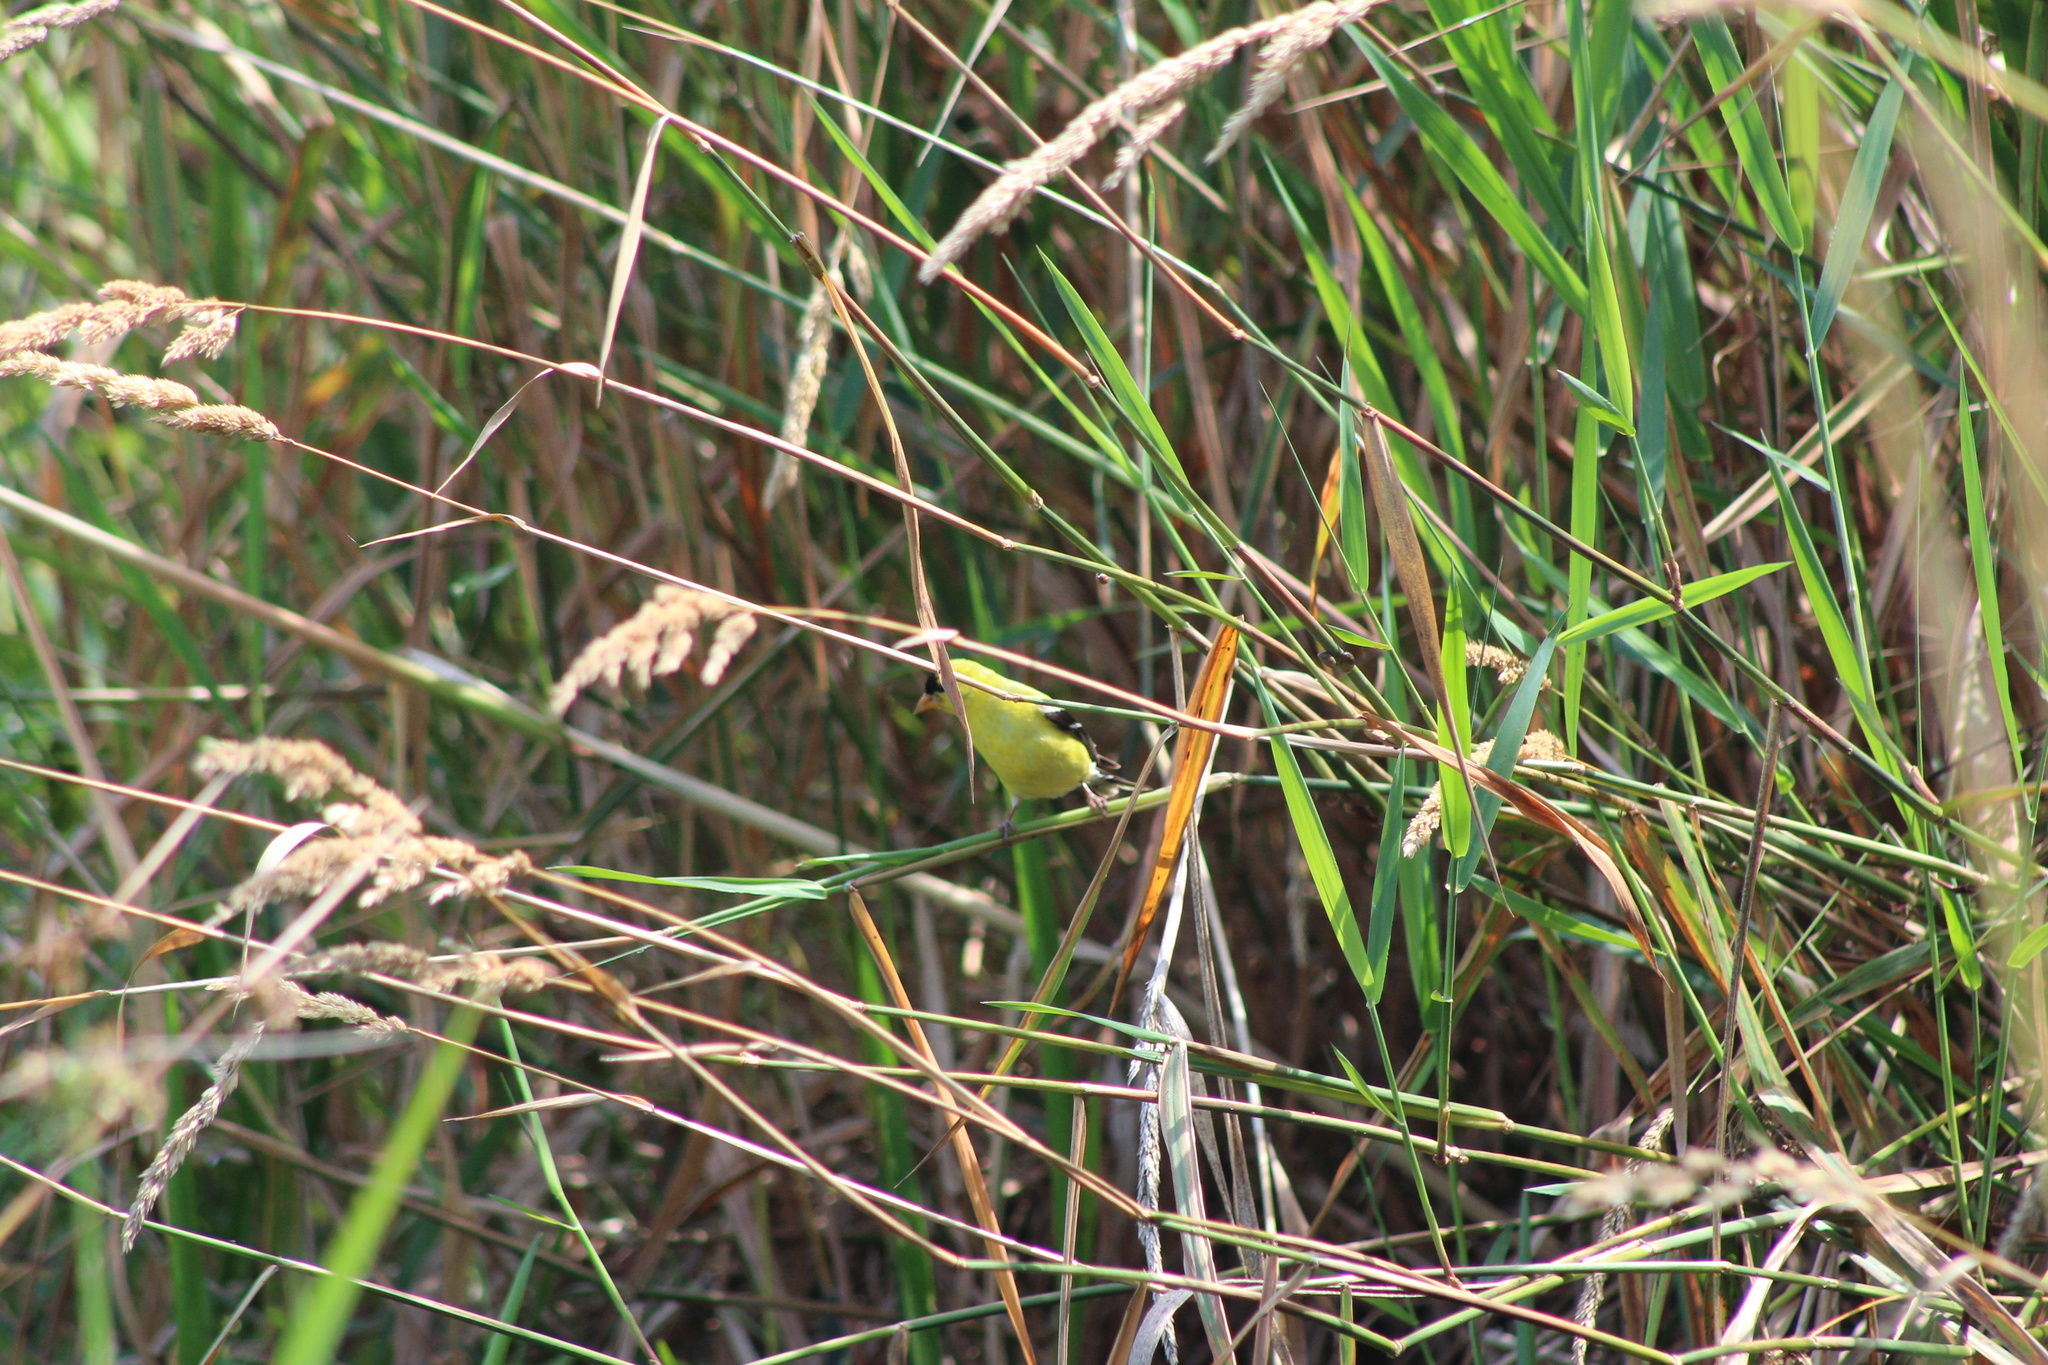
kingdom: Animalia
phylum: Chordata
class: Aves
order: Passeriformes
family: Fringillidae
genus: Spinus
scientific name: Spinus tristis
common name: American goldfinch
